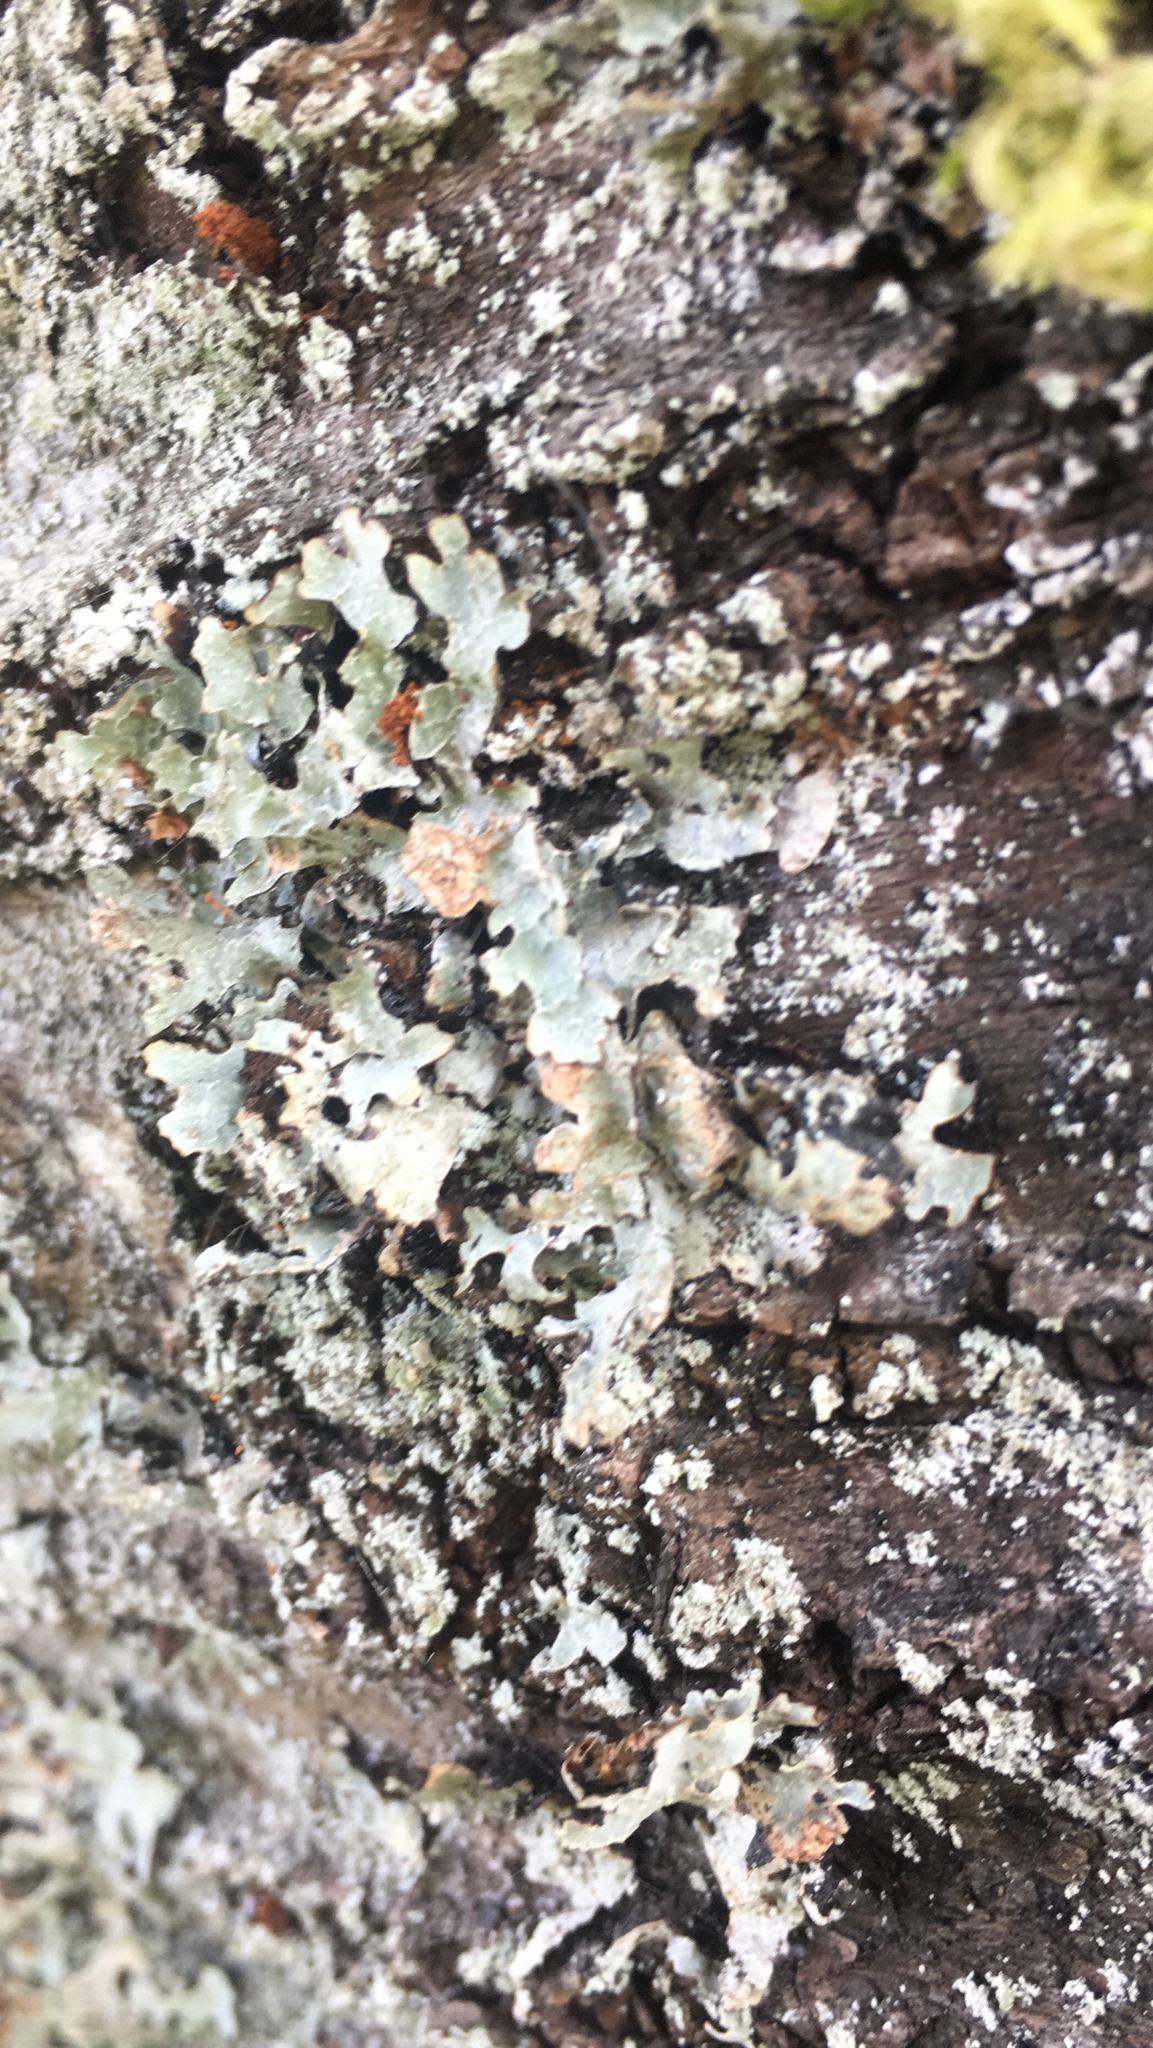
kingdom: Fungi
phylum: Ascomycota
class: Lecanoromycetes
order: Lecanorales
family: Parmeliaceae
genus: Parmelia
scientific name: Parmelia sulcata
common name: Netted shield lichen
